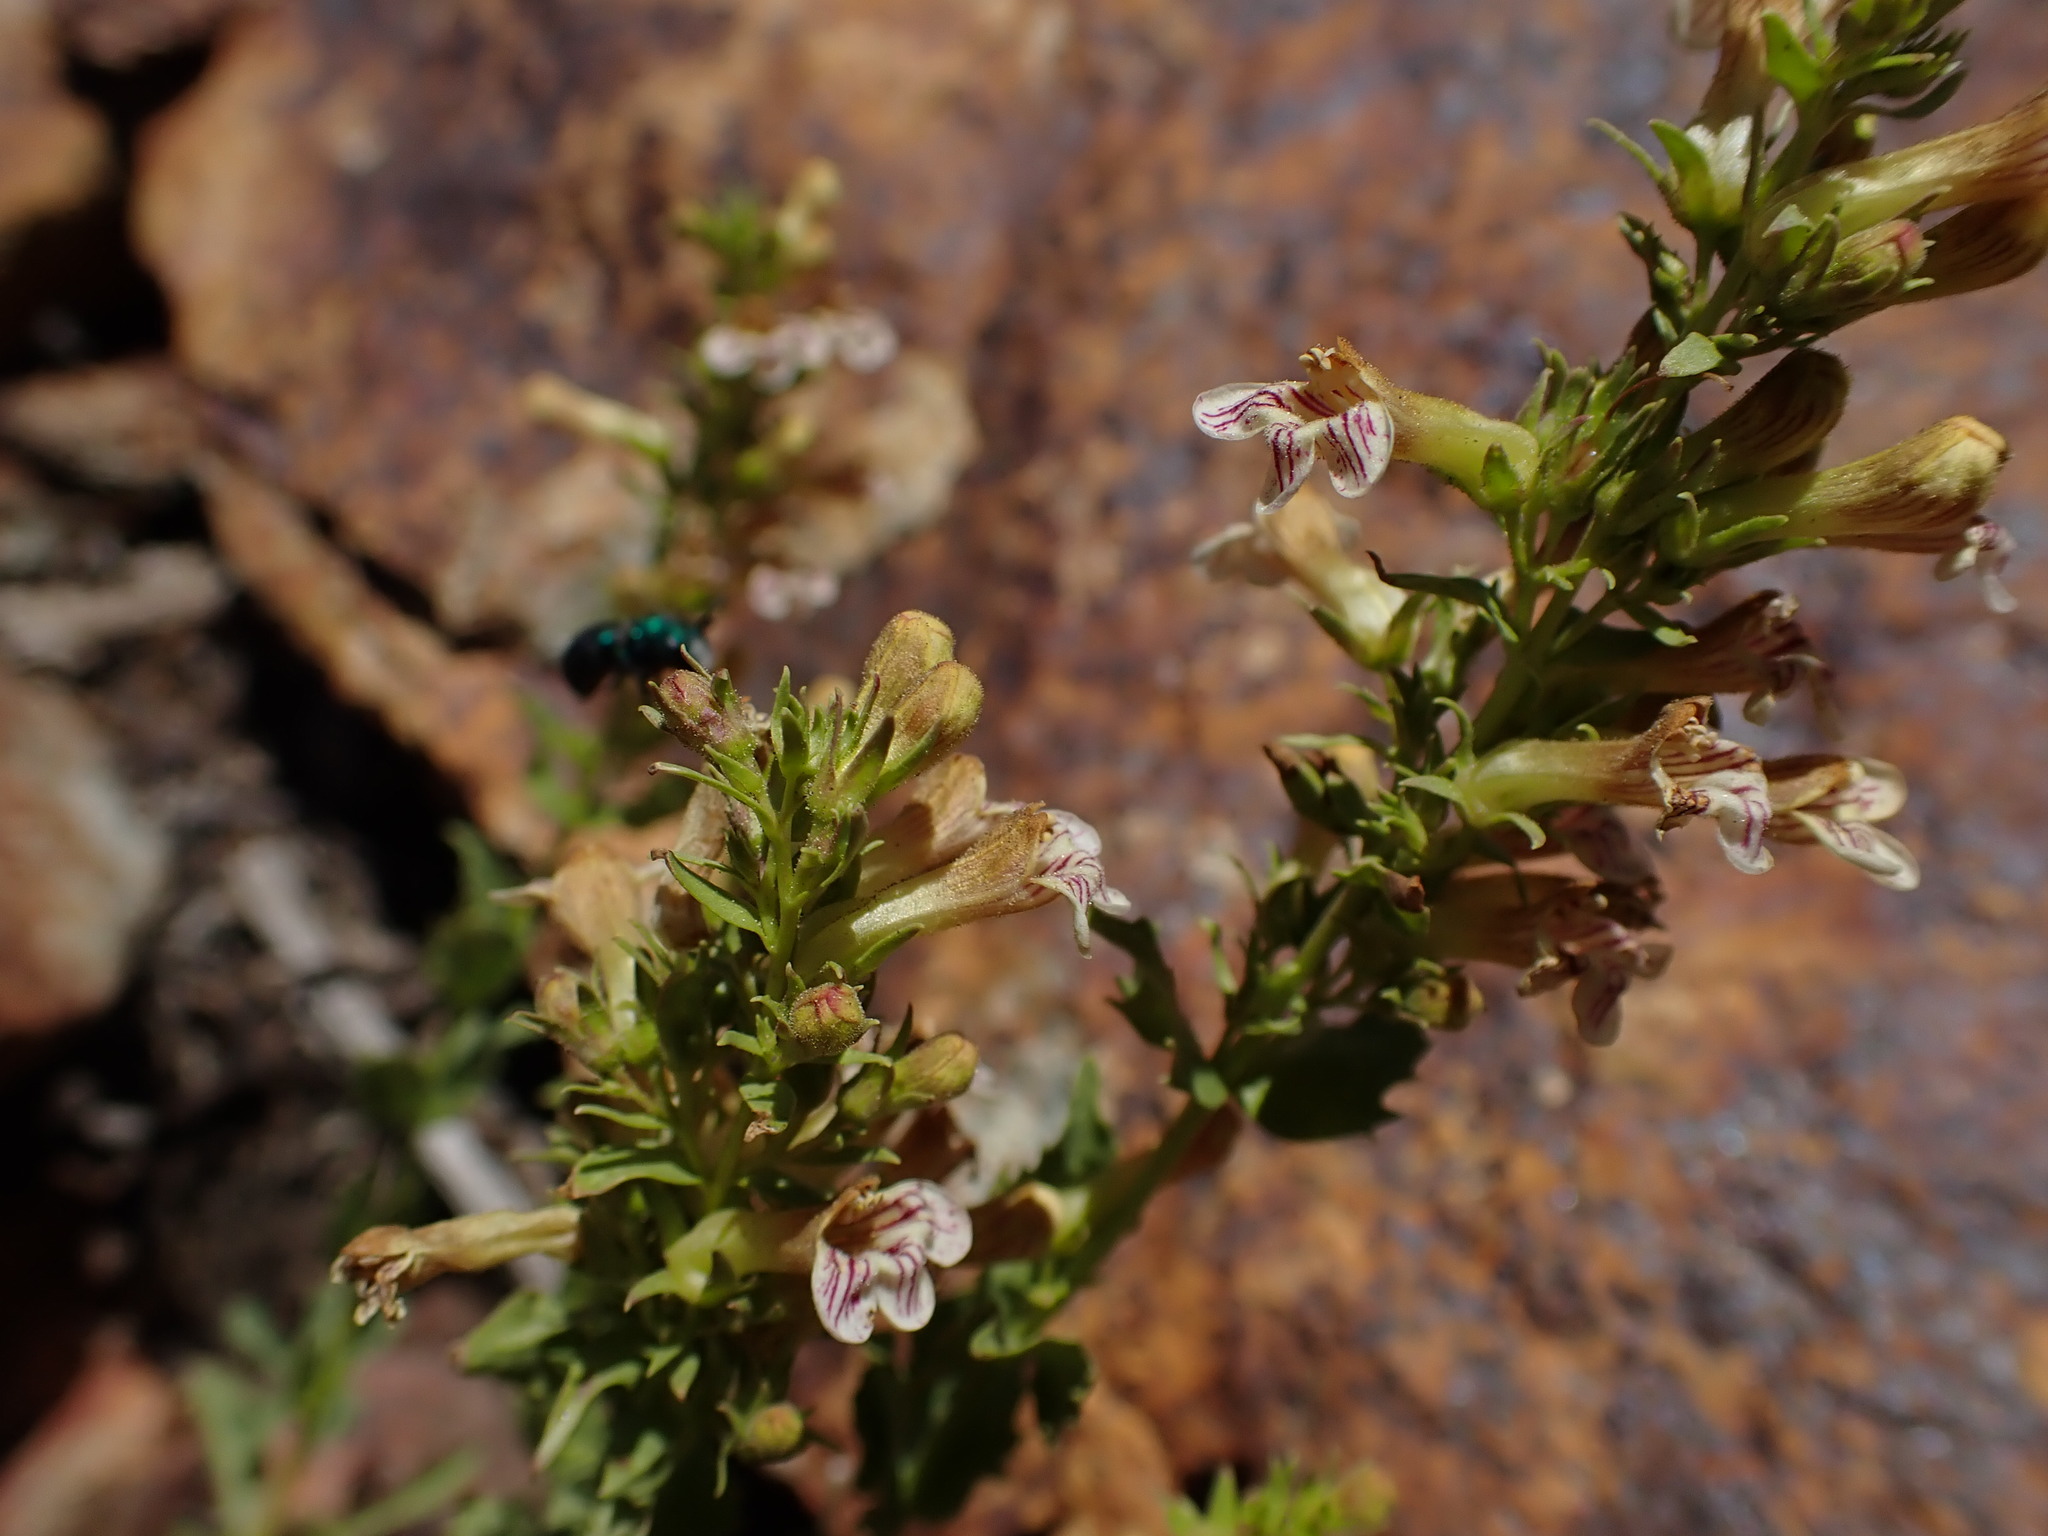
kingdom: Plantae
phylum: Tracheophyta
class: Magnoliopsida
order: Lamiales
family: Plantaginaceae
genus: Penstemon
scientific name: Penstemon deustus
